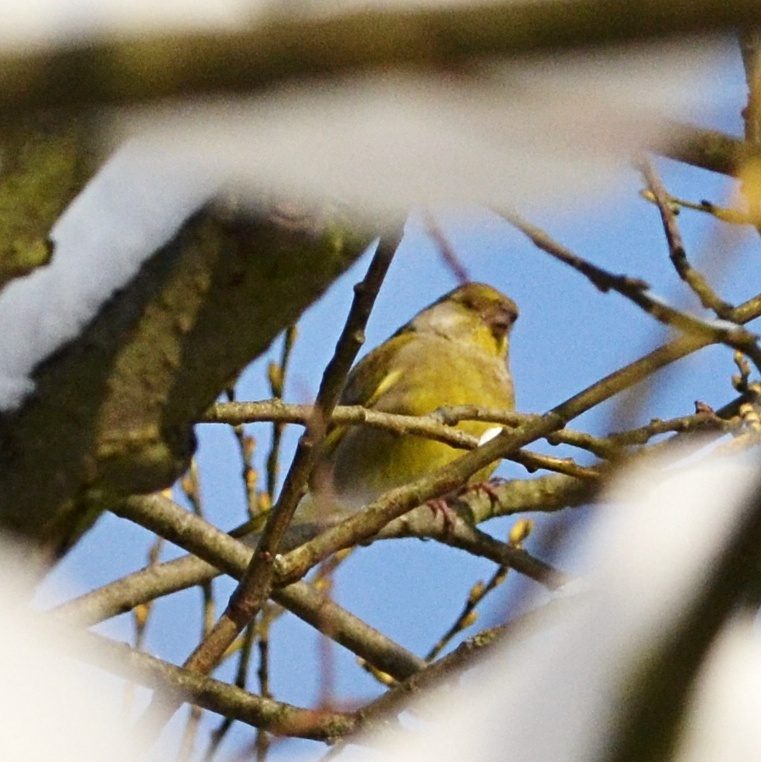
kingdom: Plantae
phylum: Tracheophyta
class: Liliopsida
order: Poales
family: Poaceae
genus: Chloris
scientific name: Chloris chloris
